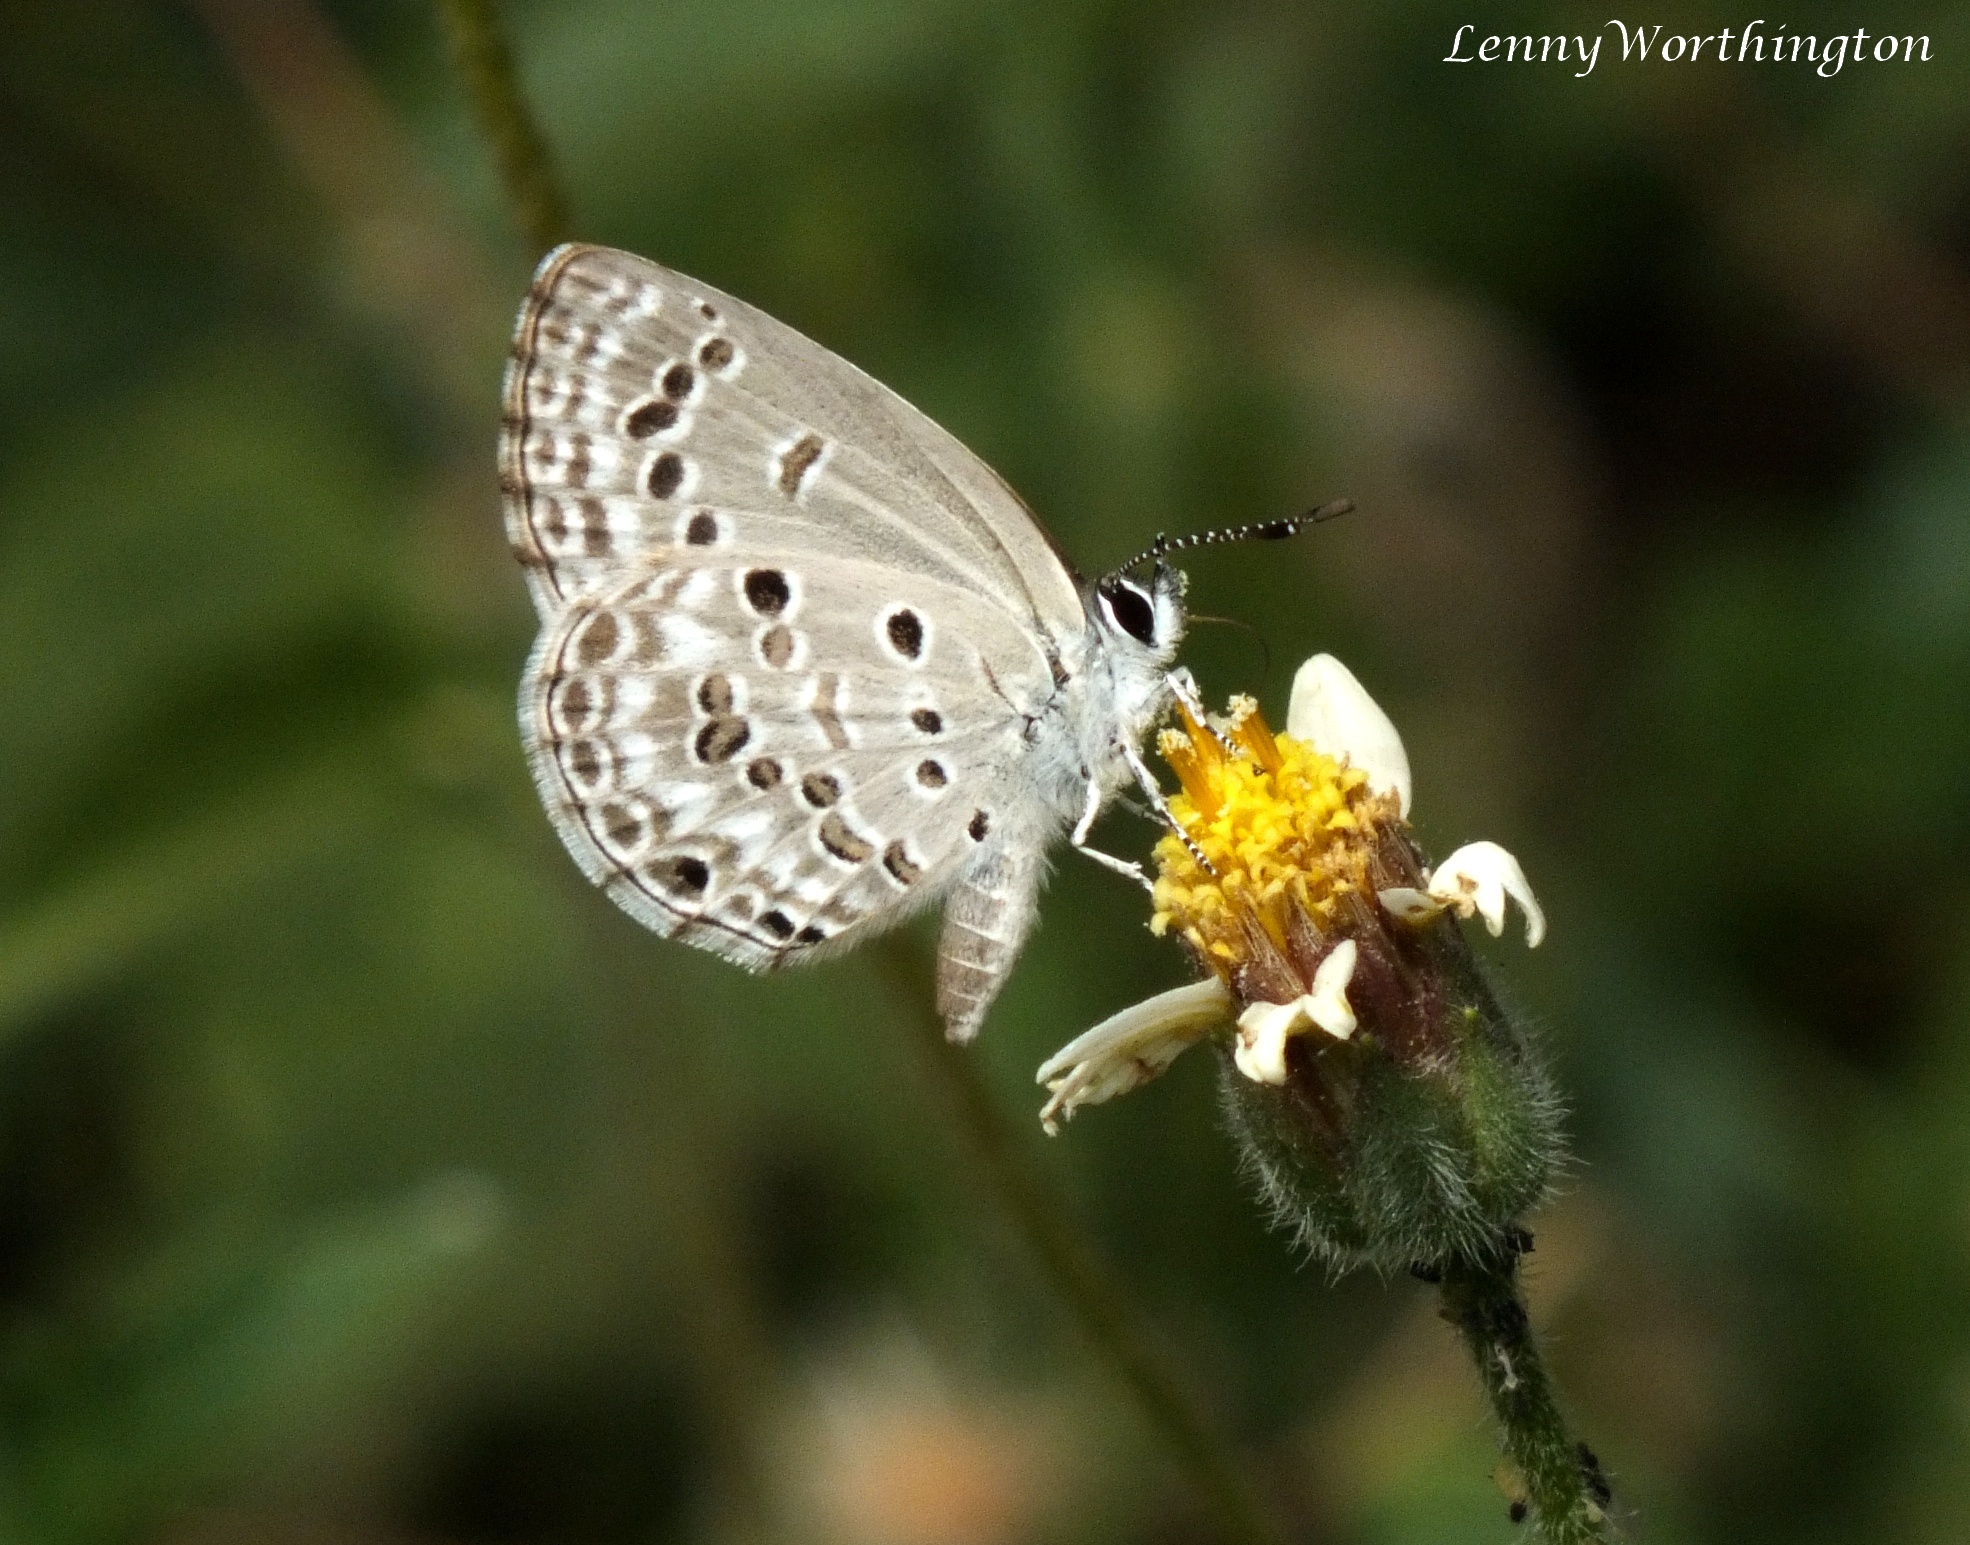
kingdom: Animalia
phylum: Arthropoda
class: Insecta
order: Lepidoptera
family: Lycaenidae
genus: Chilades
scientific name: Chilades laius
